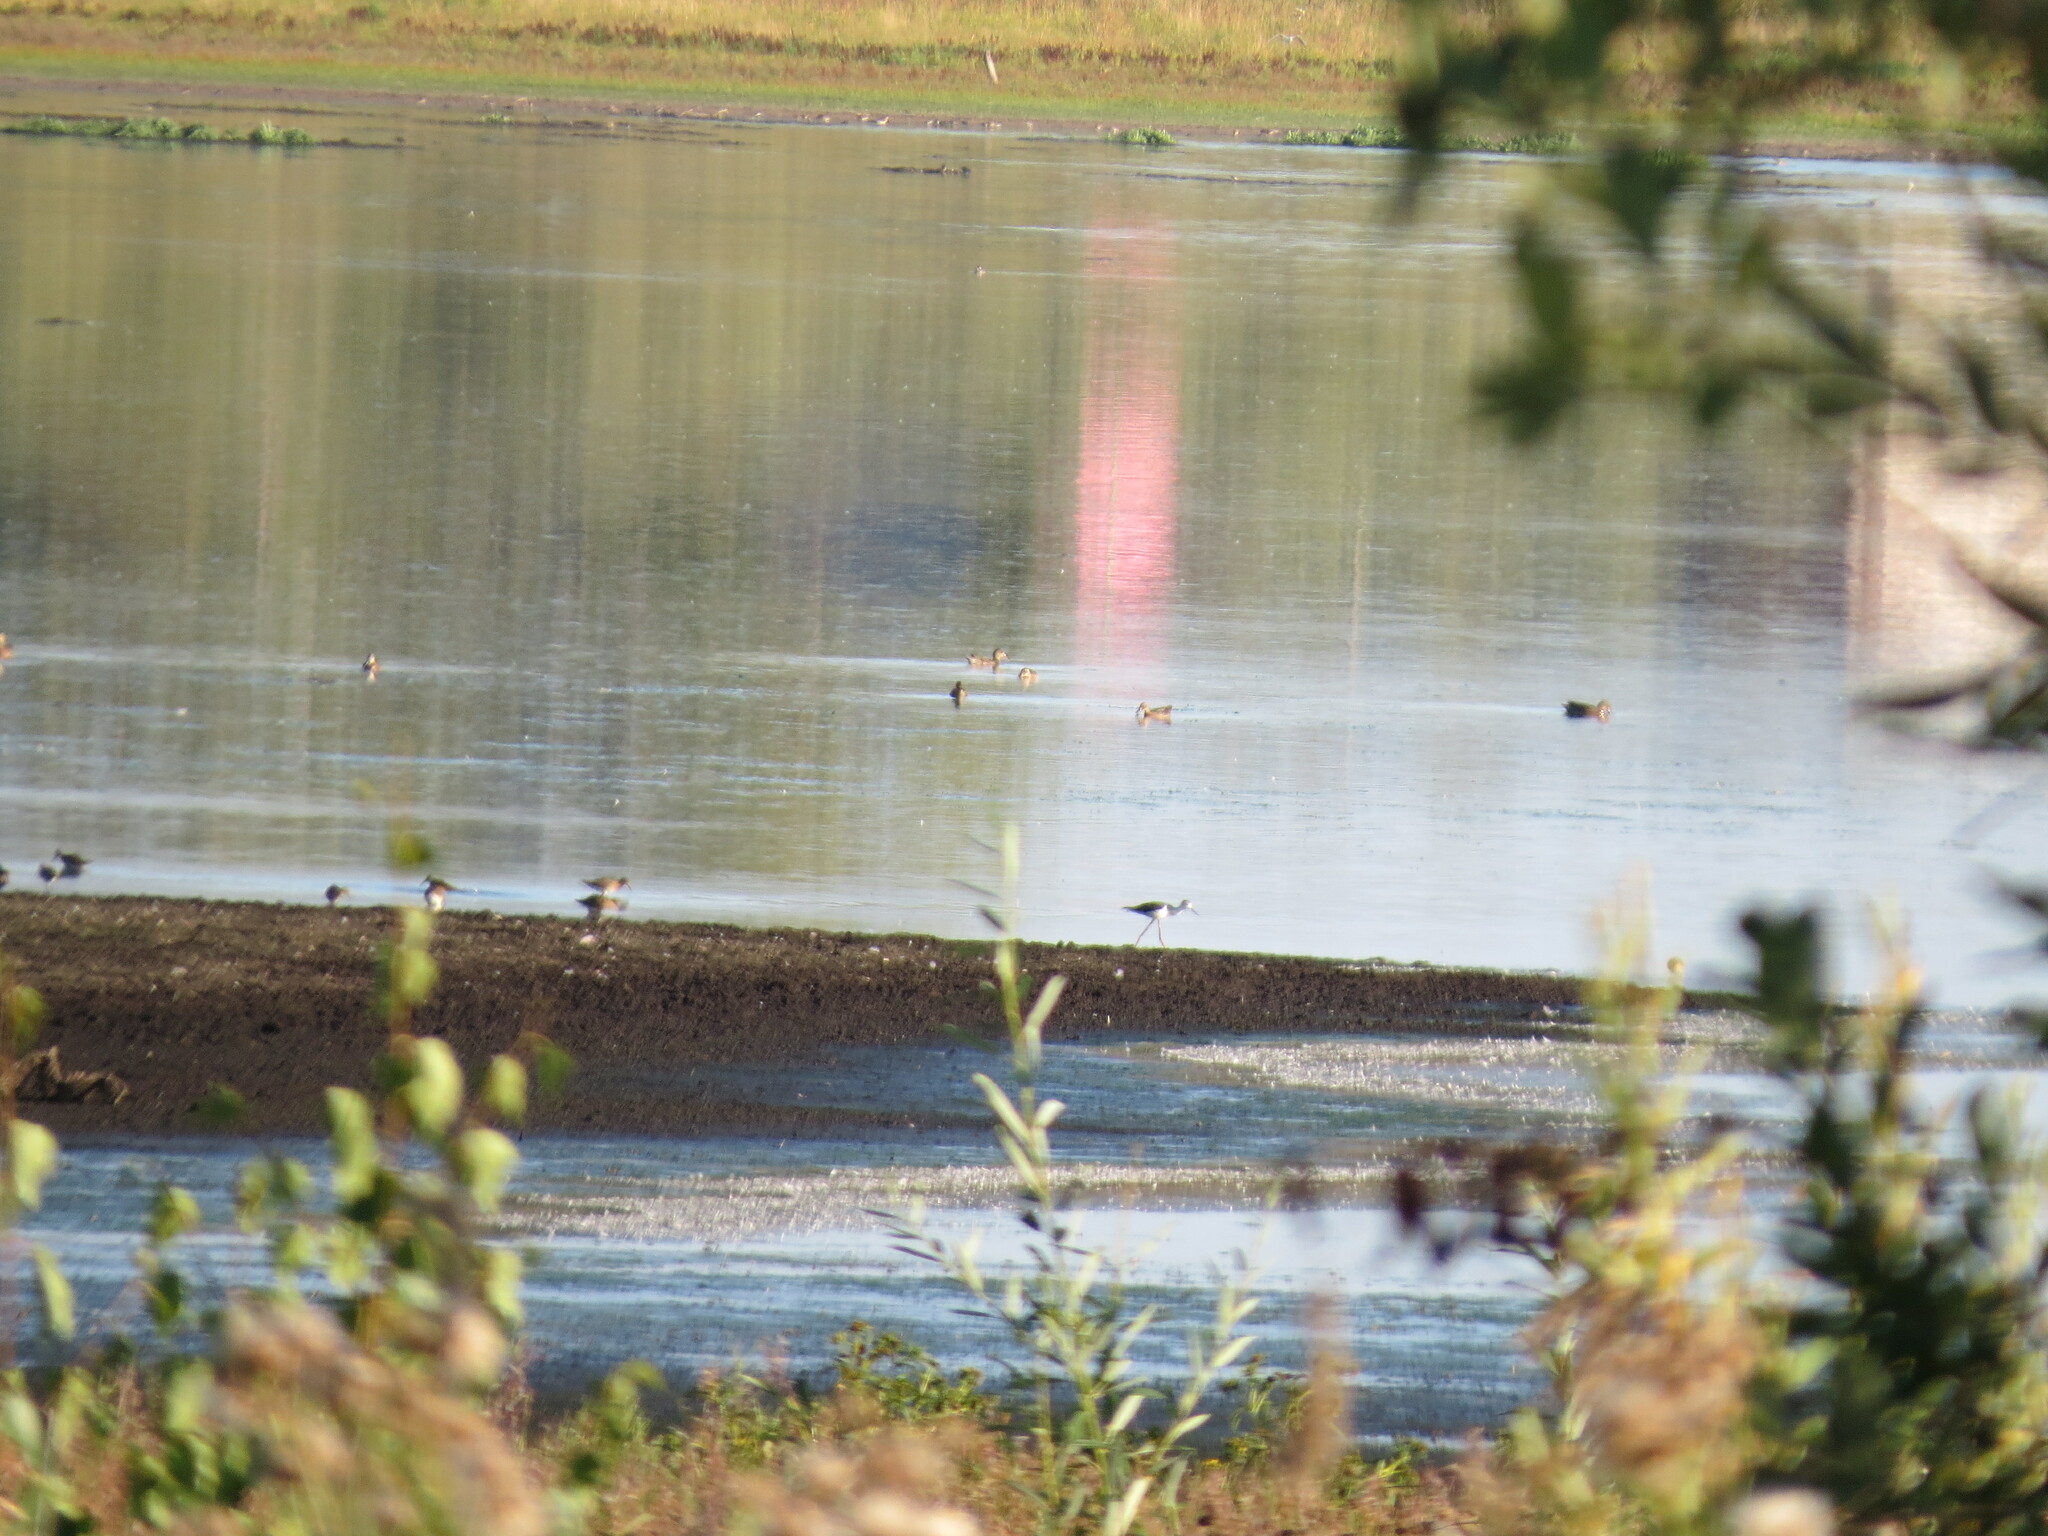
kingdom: Animalia
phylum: Chordata
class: Aves
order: Charadriiformes
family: Recurvirostridae
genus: Himantopus
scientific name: Himantopus himantopus
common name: Black-winged stilt
